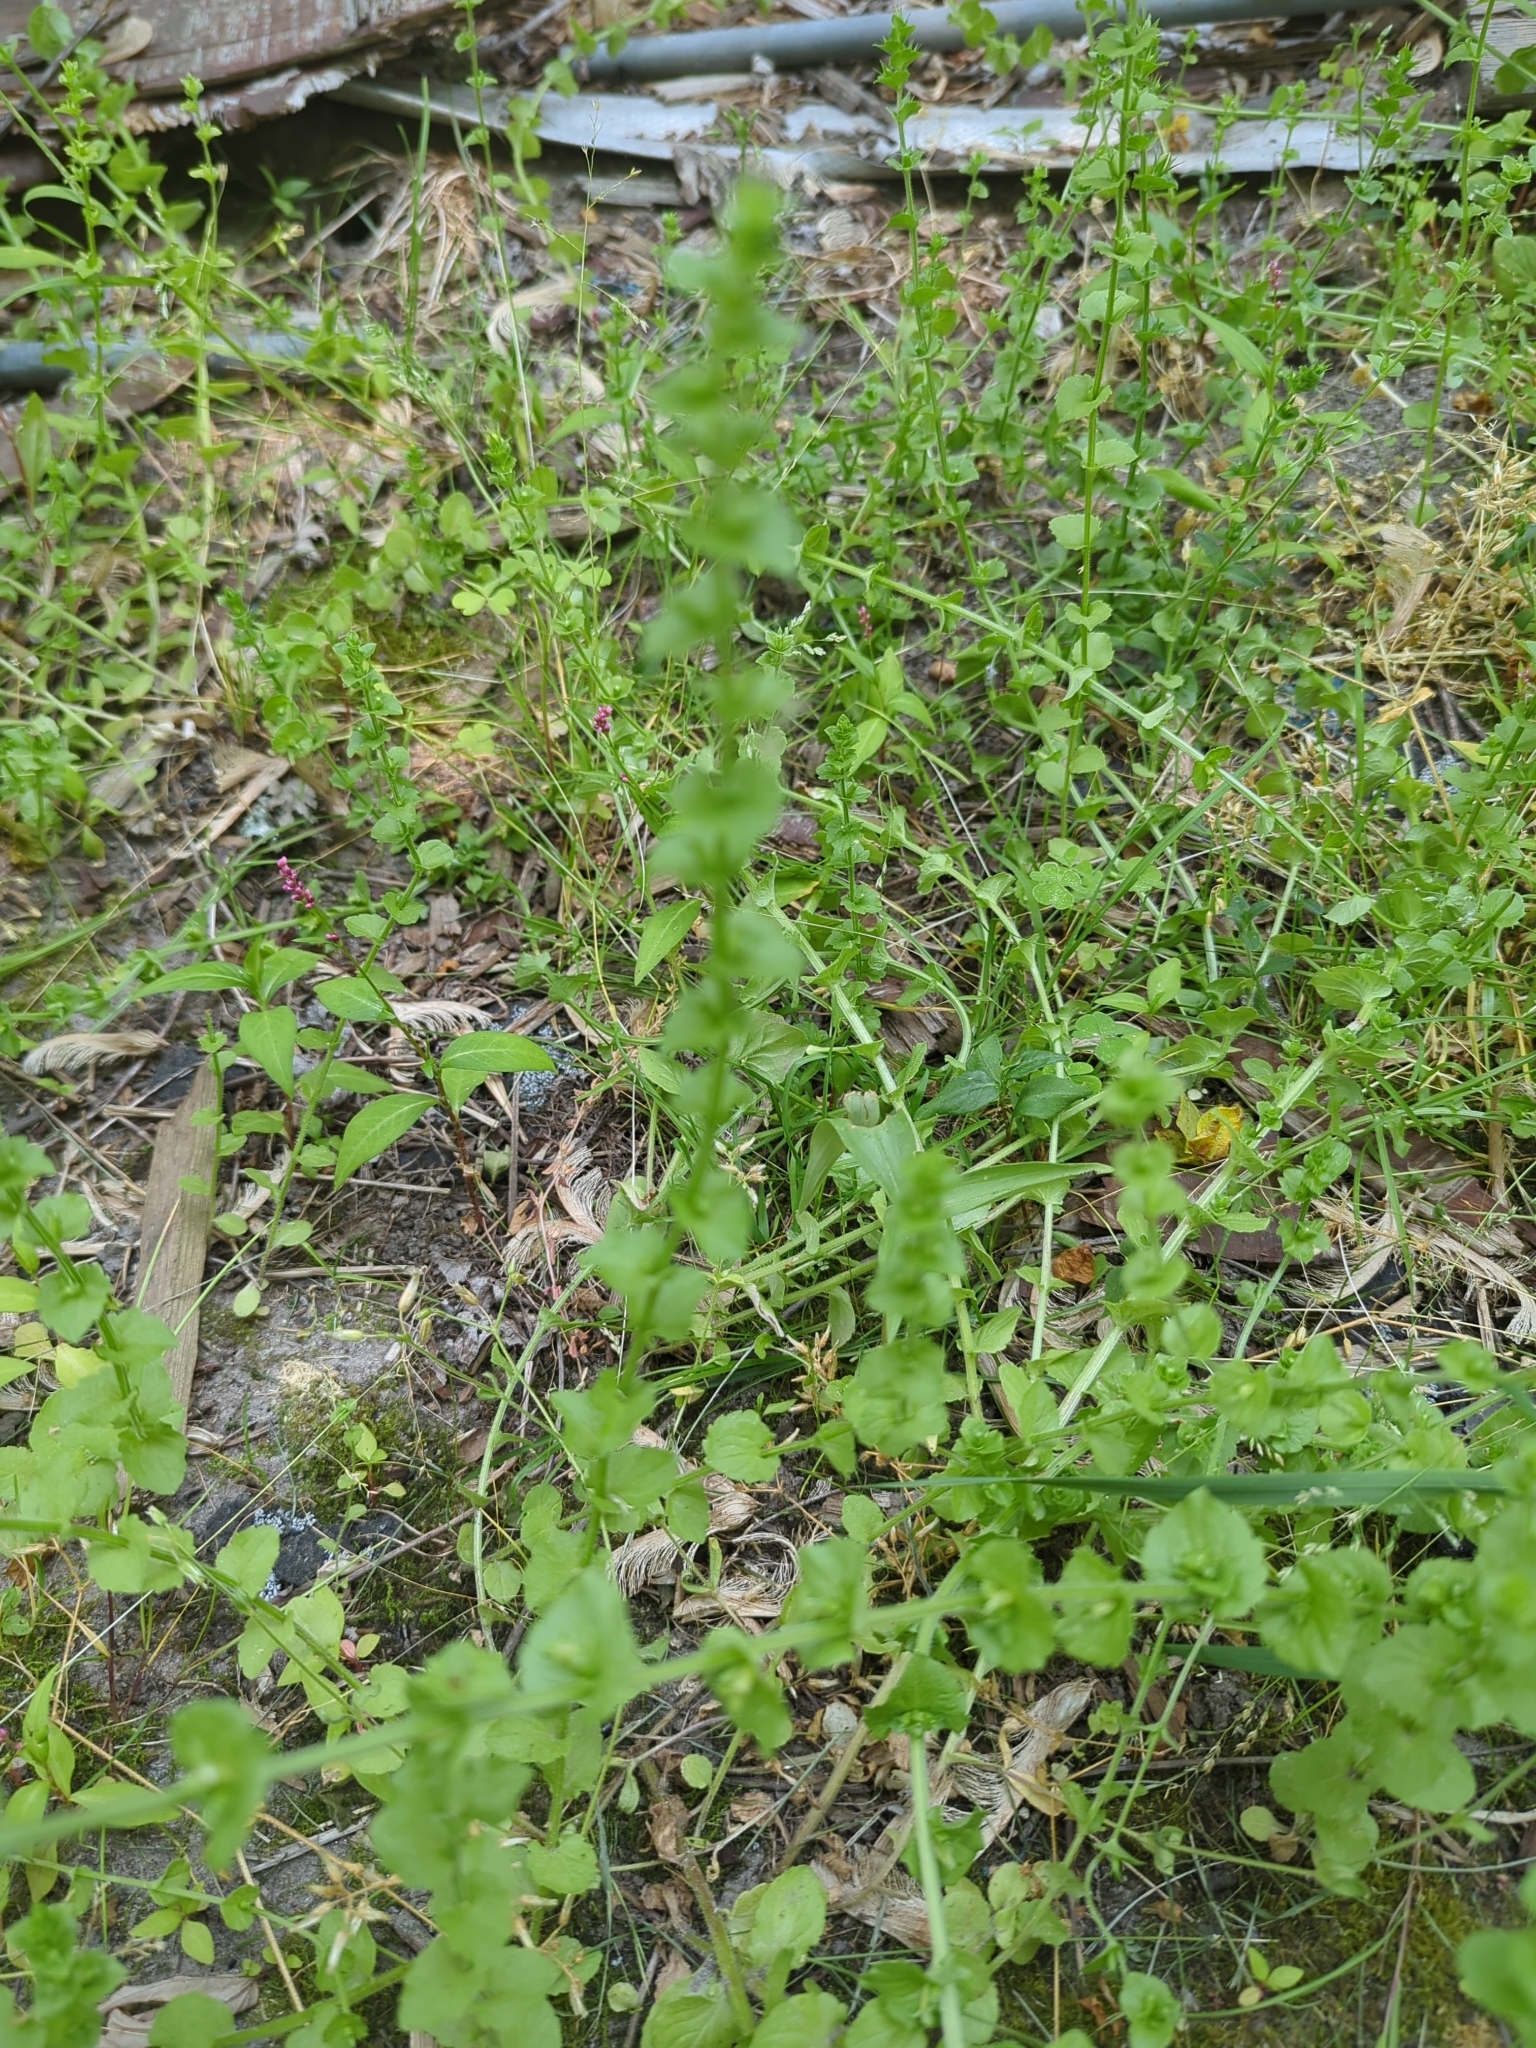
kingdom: Plantae
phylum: Tracheophyta
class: Magnoliopsida
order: Asterales
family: Campanulaceae
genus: Triodanis
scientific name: Triodanis perfoliata
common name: Clasping venus' looking-glass
